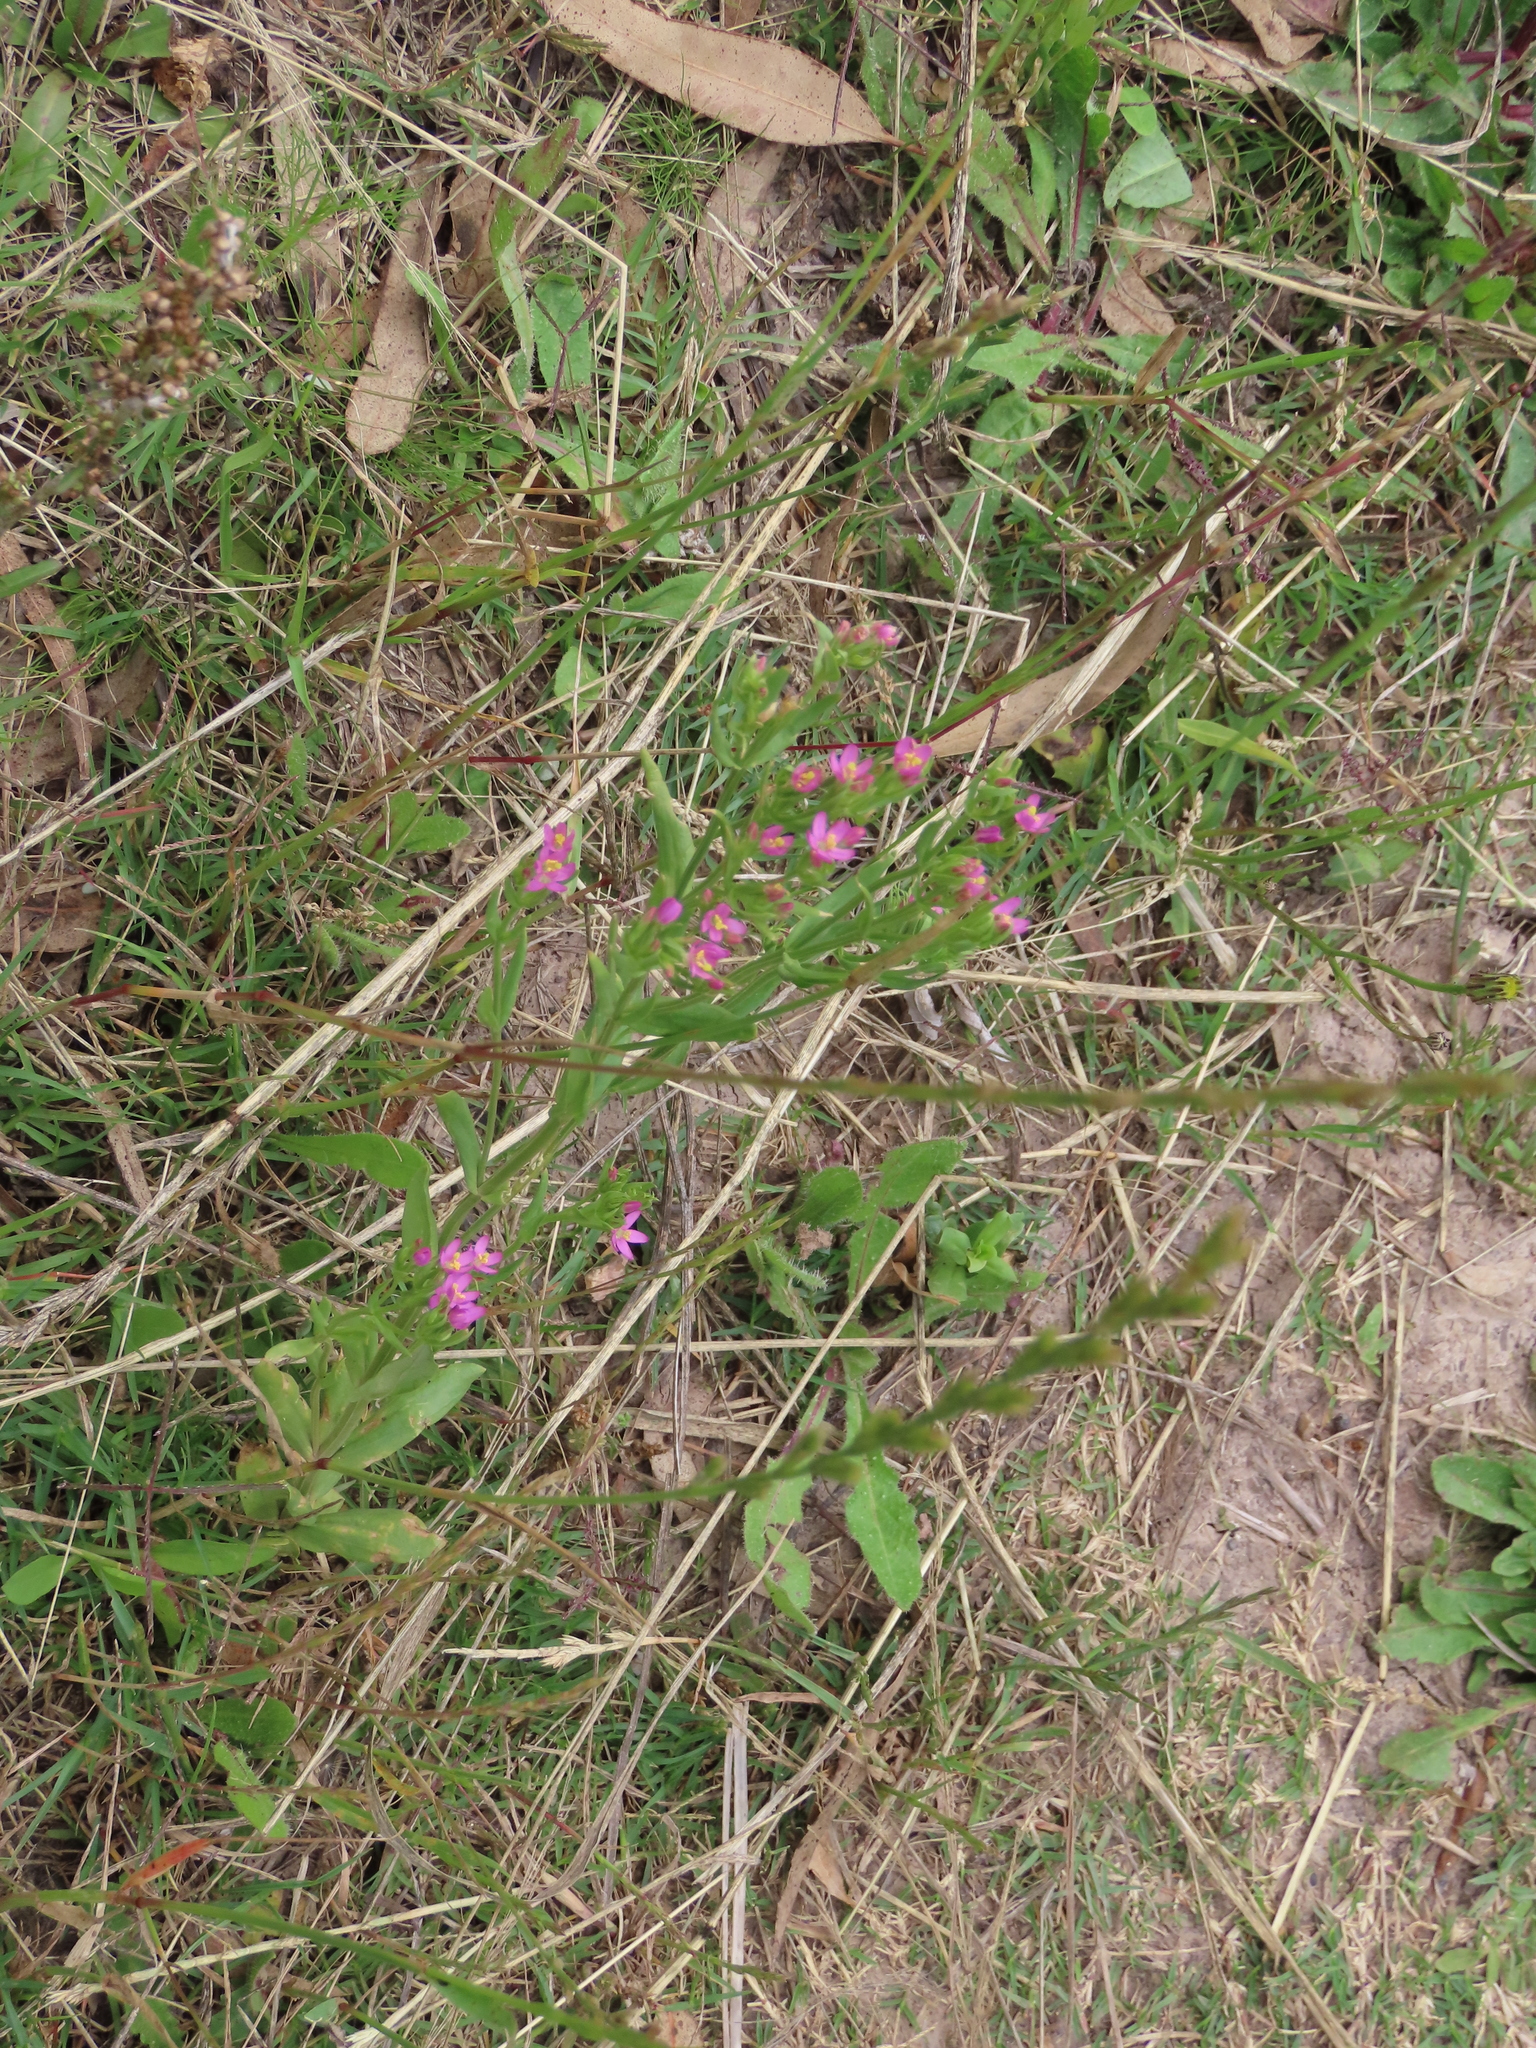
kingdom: Plantae
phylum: Tracheophyta
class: Magnoliopsida
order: Gentianales
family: Gentianaceae
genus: Centaurium
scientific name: Centaurium pulchellum
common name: Lesser centaury
